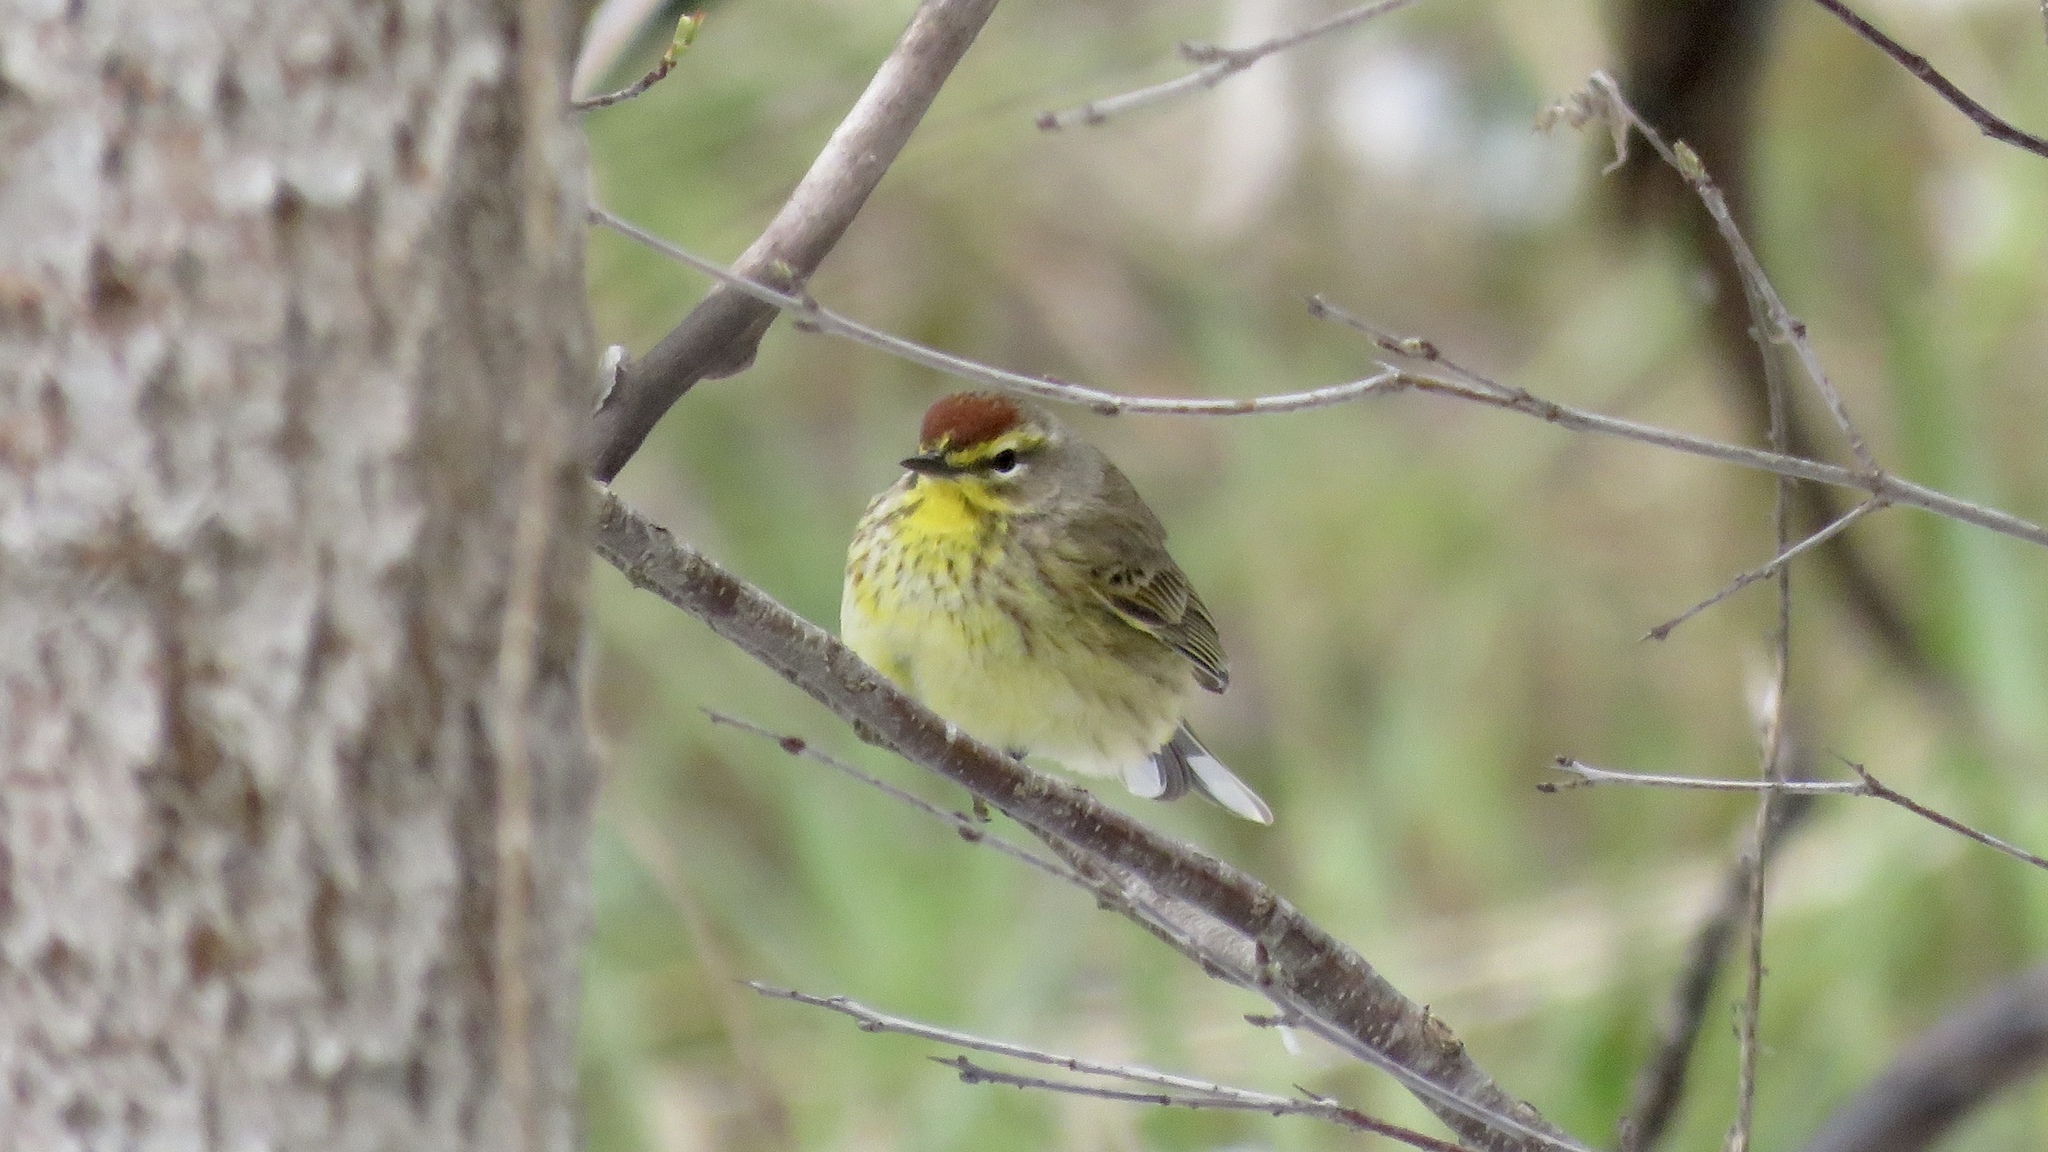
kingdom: Animalia
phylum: Chordata
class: Aves
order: Passeriformes
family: Parulidae
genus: Setophaga
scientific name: Setophaga palmarum
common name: Palm warbler
